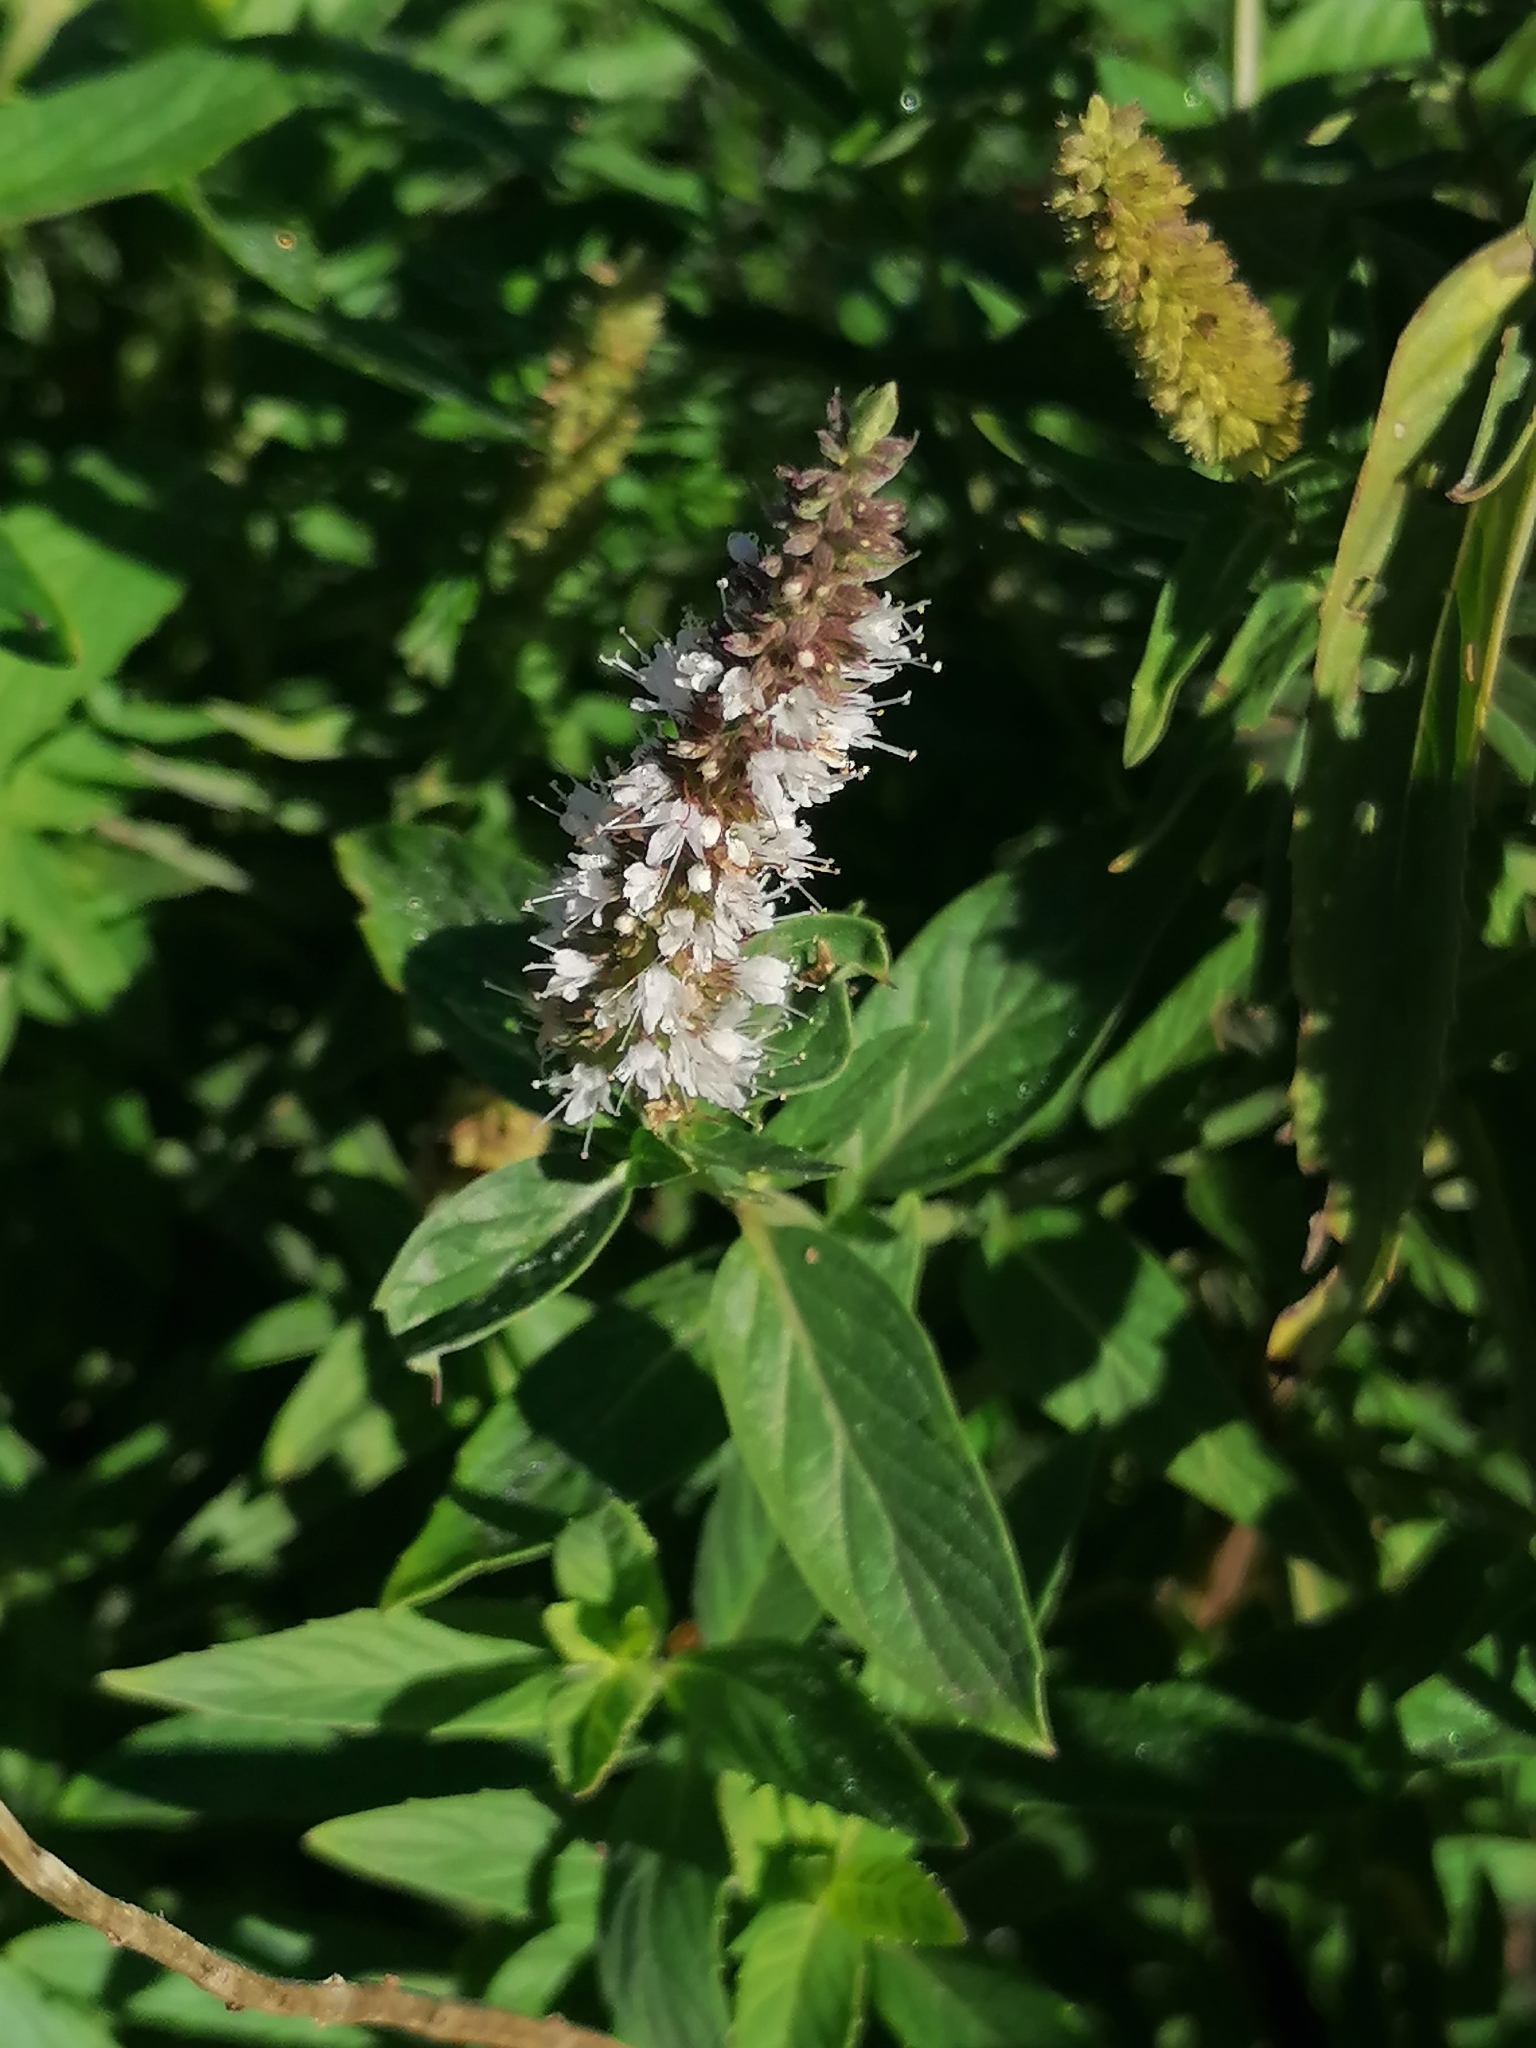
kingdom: Plantae
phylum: Tracheophyta
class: Magnoliopsida
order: Lamiales
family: Lamiaceae
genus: Mentha
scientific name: Mentha longifolia
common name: Horse mint
